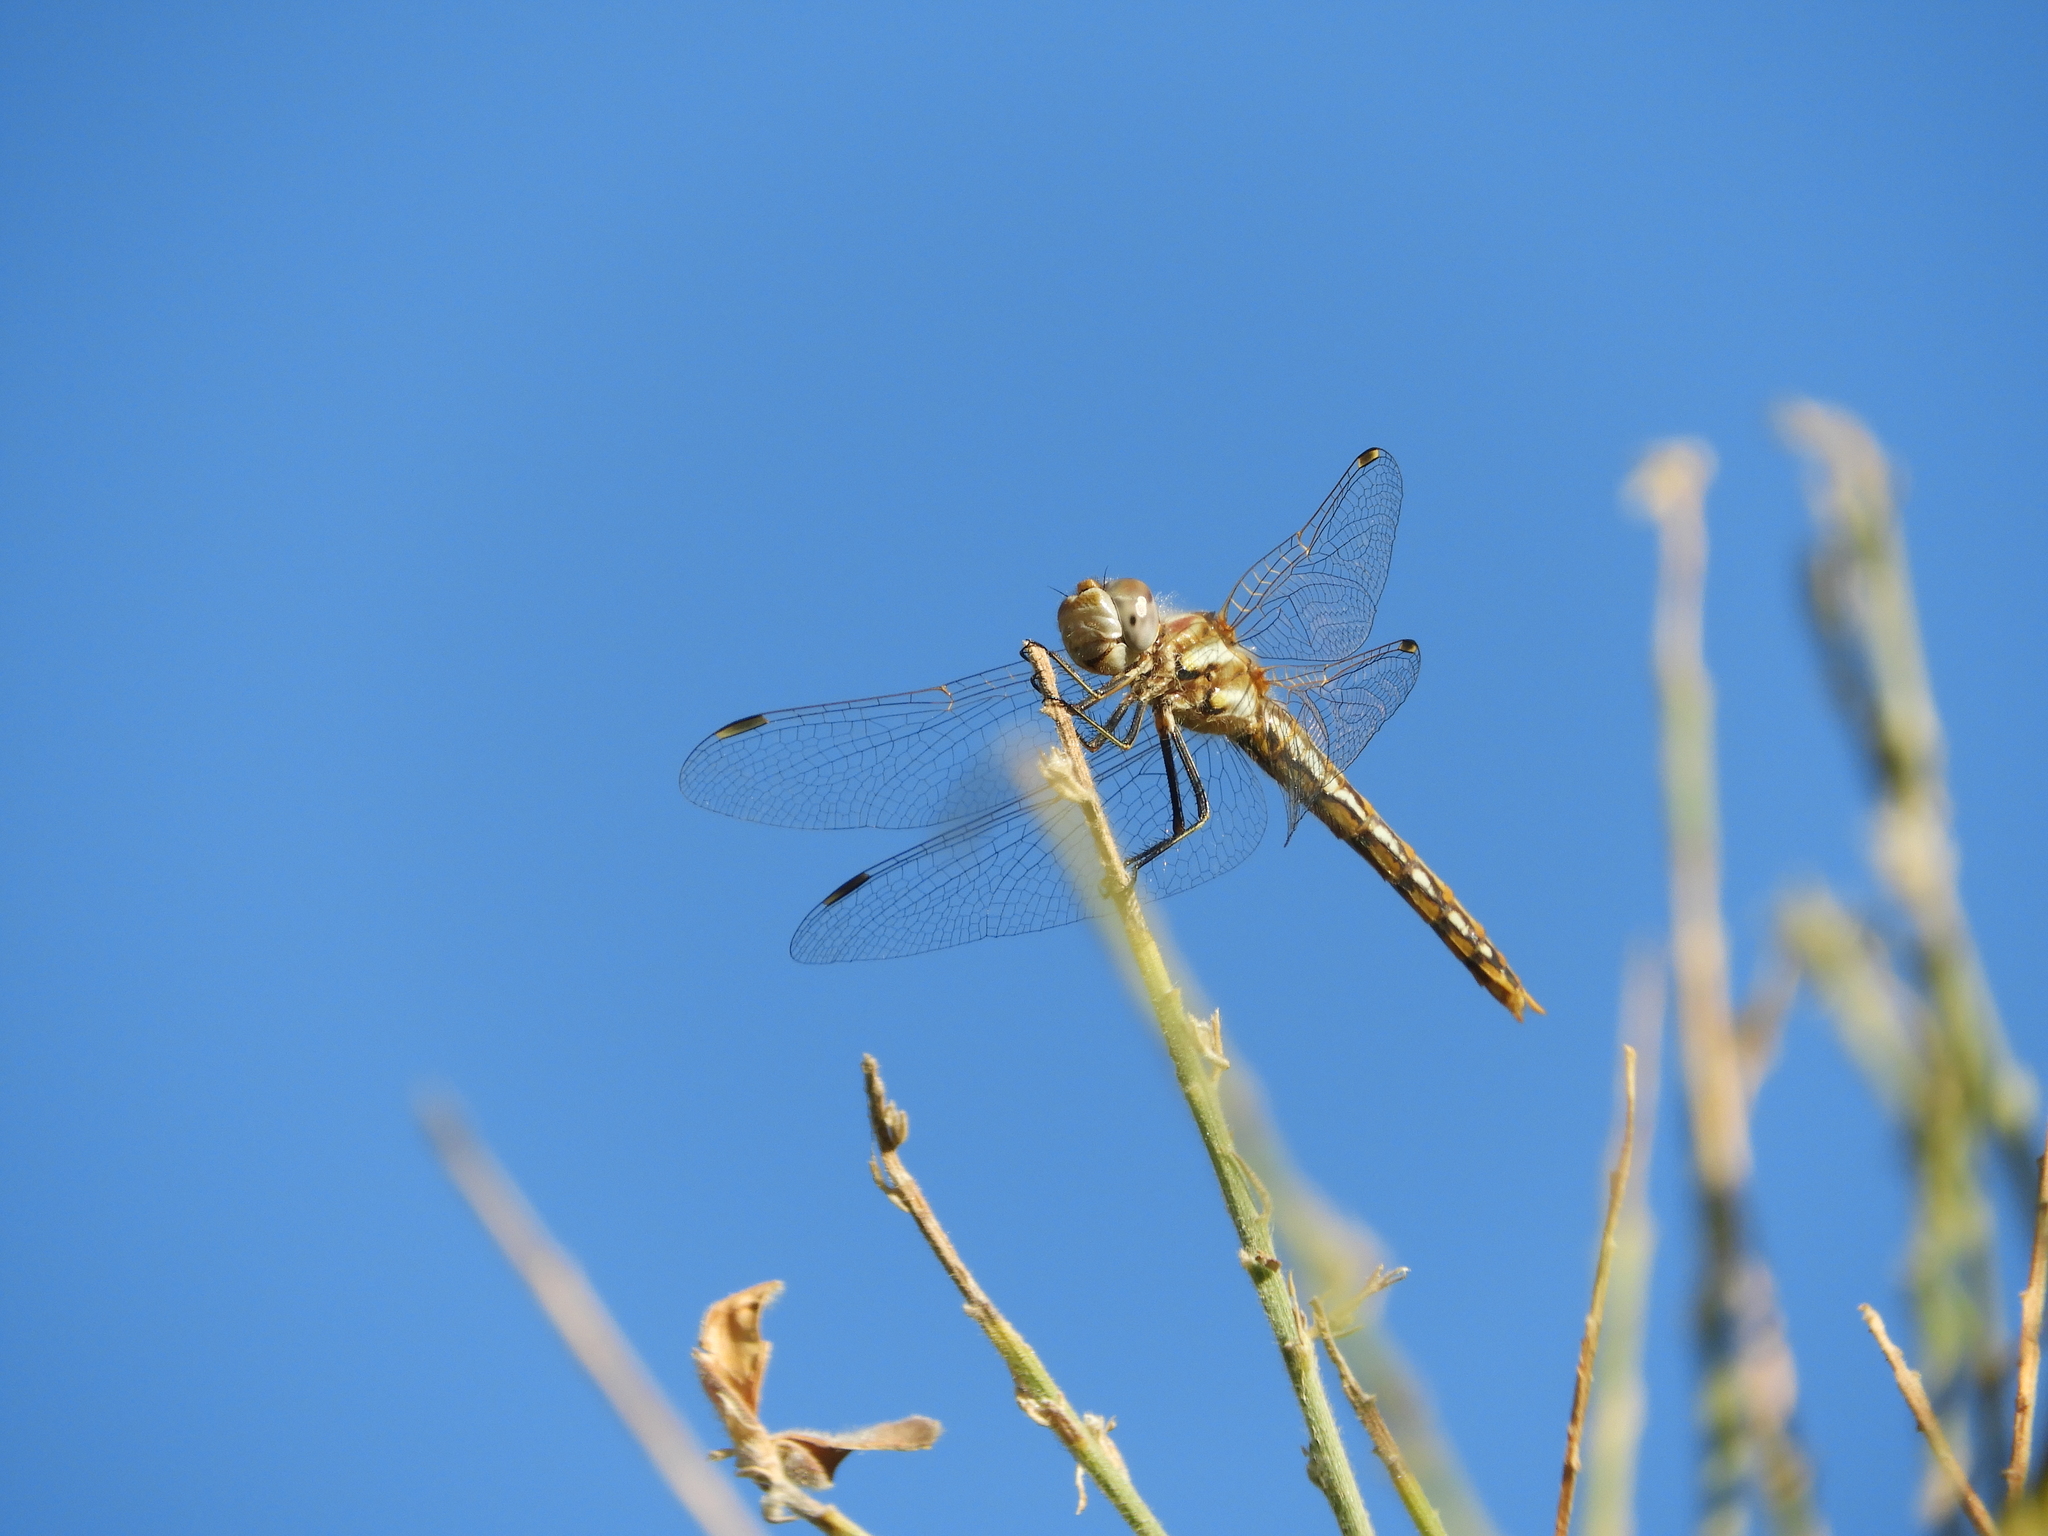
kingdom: Animalia
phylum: Arthropoda
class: Insecta
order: Odonata
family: Libellulidae
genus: Sympetrum
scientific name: Sympetrum corruptum
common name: Variegated meadowhawk
